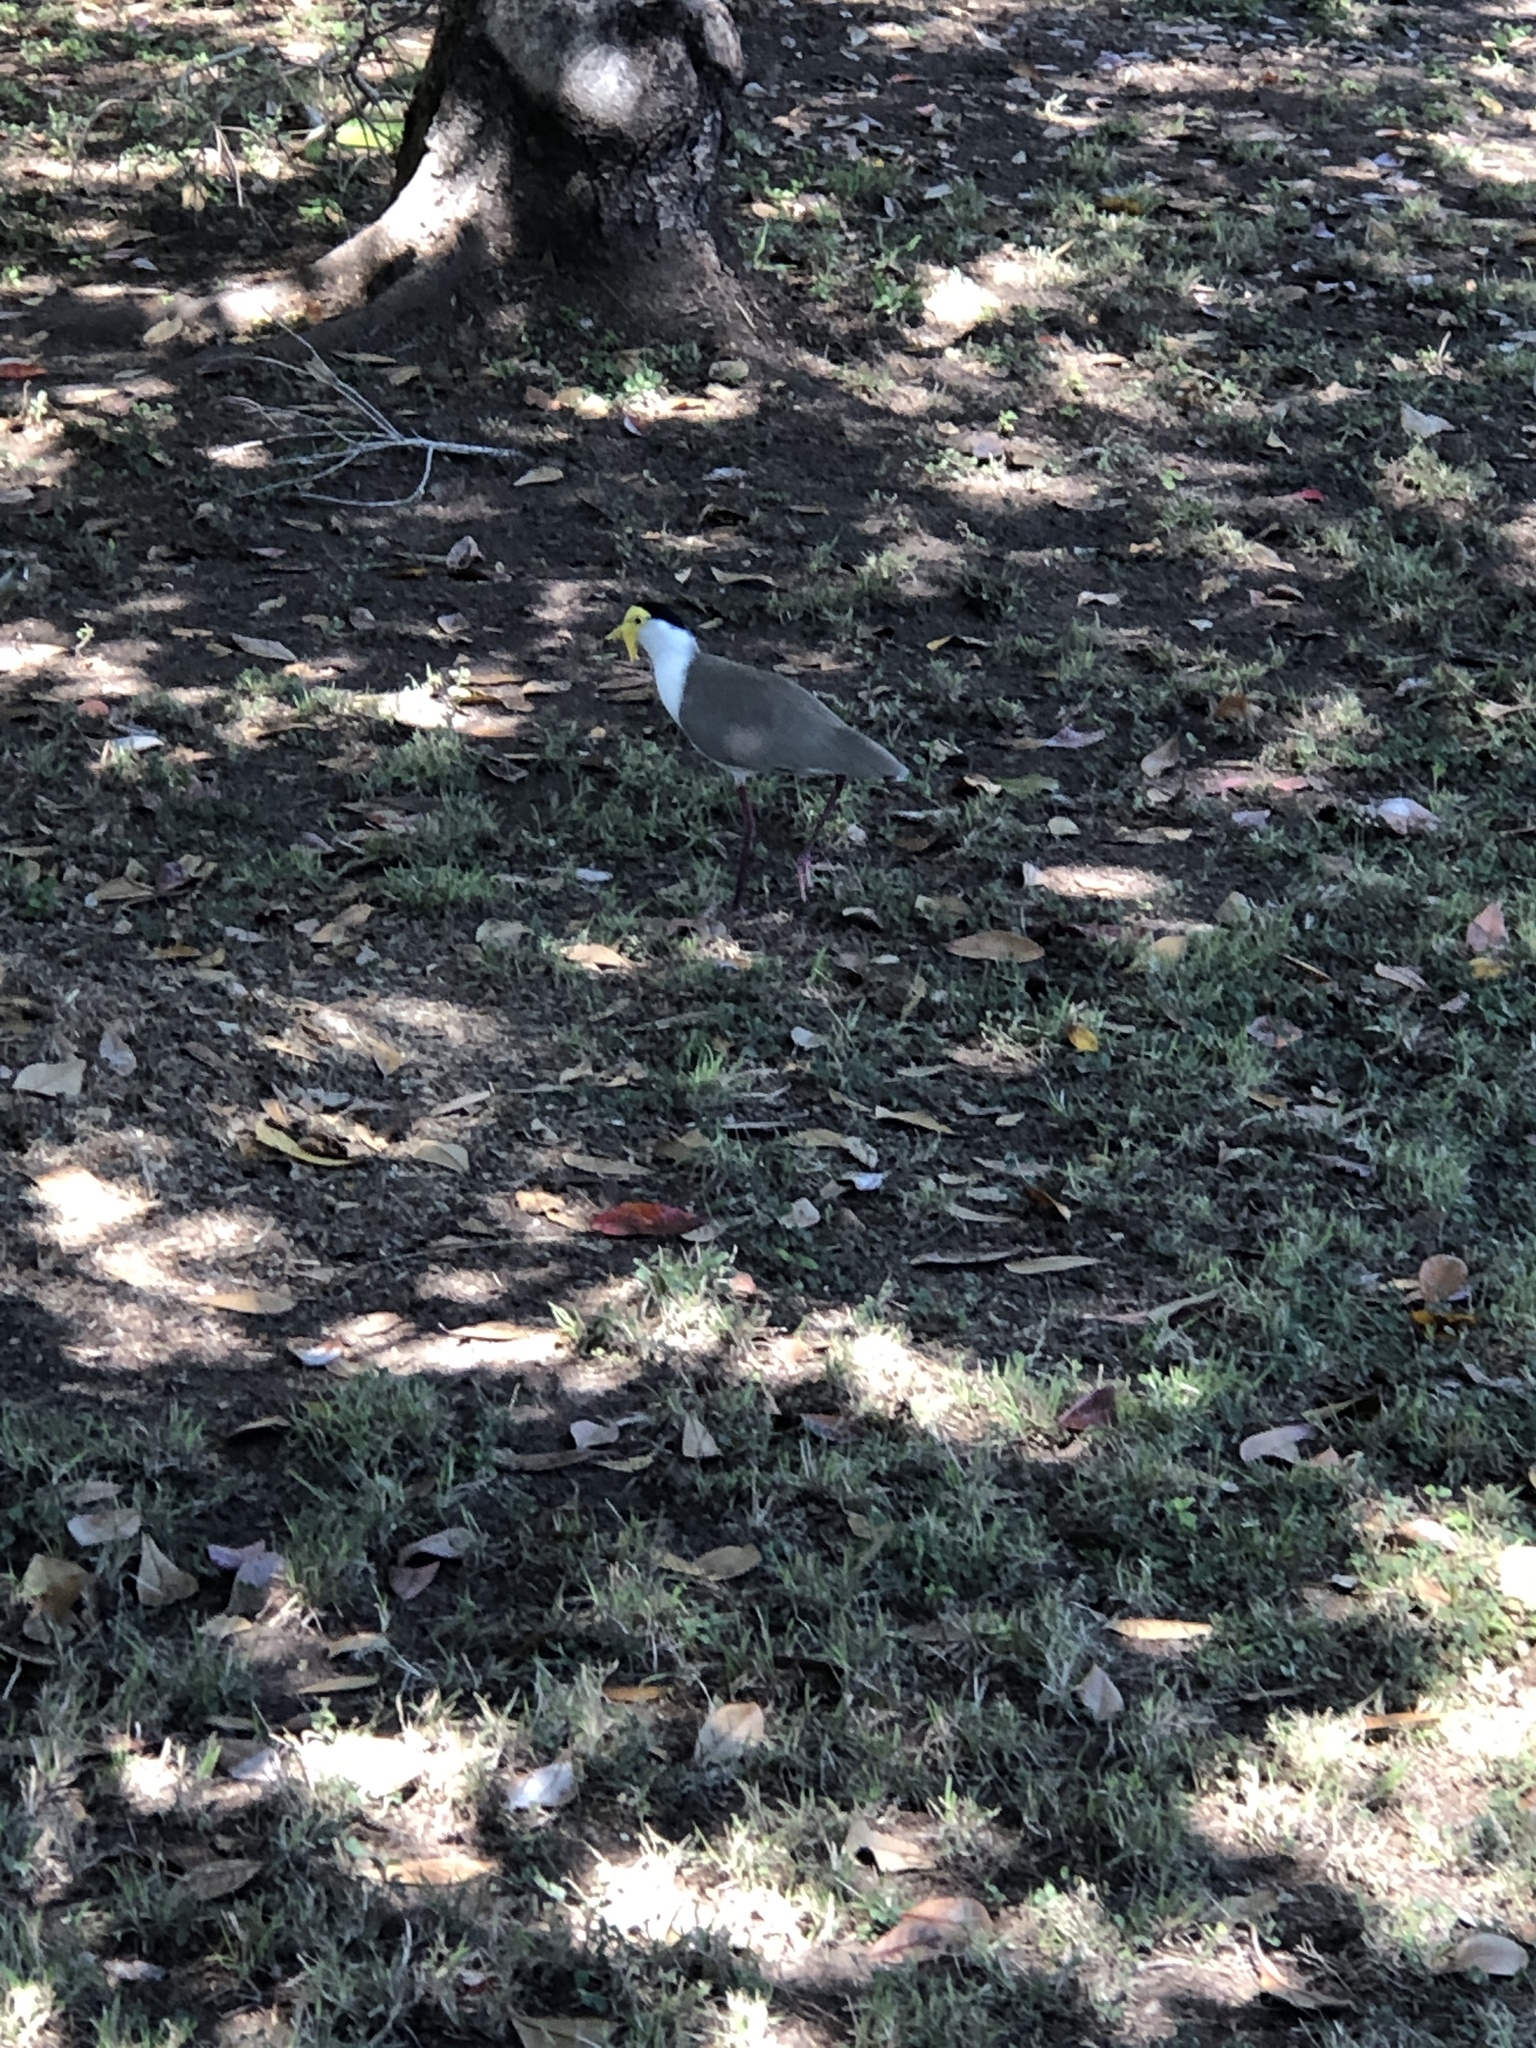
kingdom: Animalia
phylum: Chordata
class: Aves
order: Charadriiformes
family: Charadriidae
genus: Vanellus
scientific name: Vanellus miles
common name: Masked lapwing
